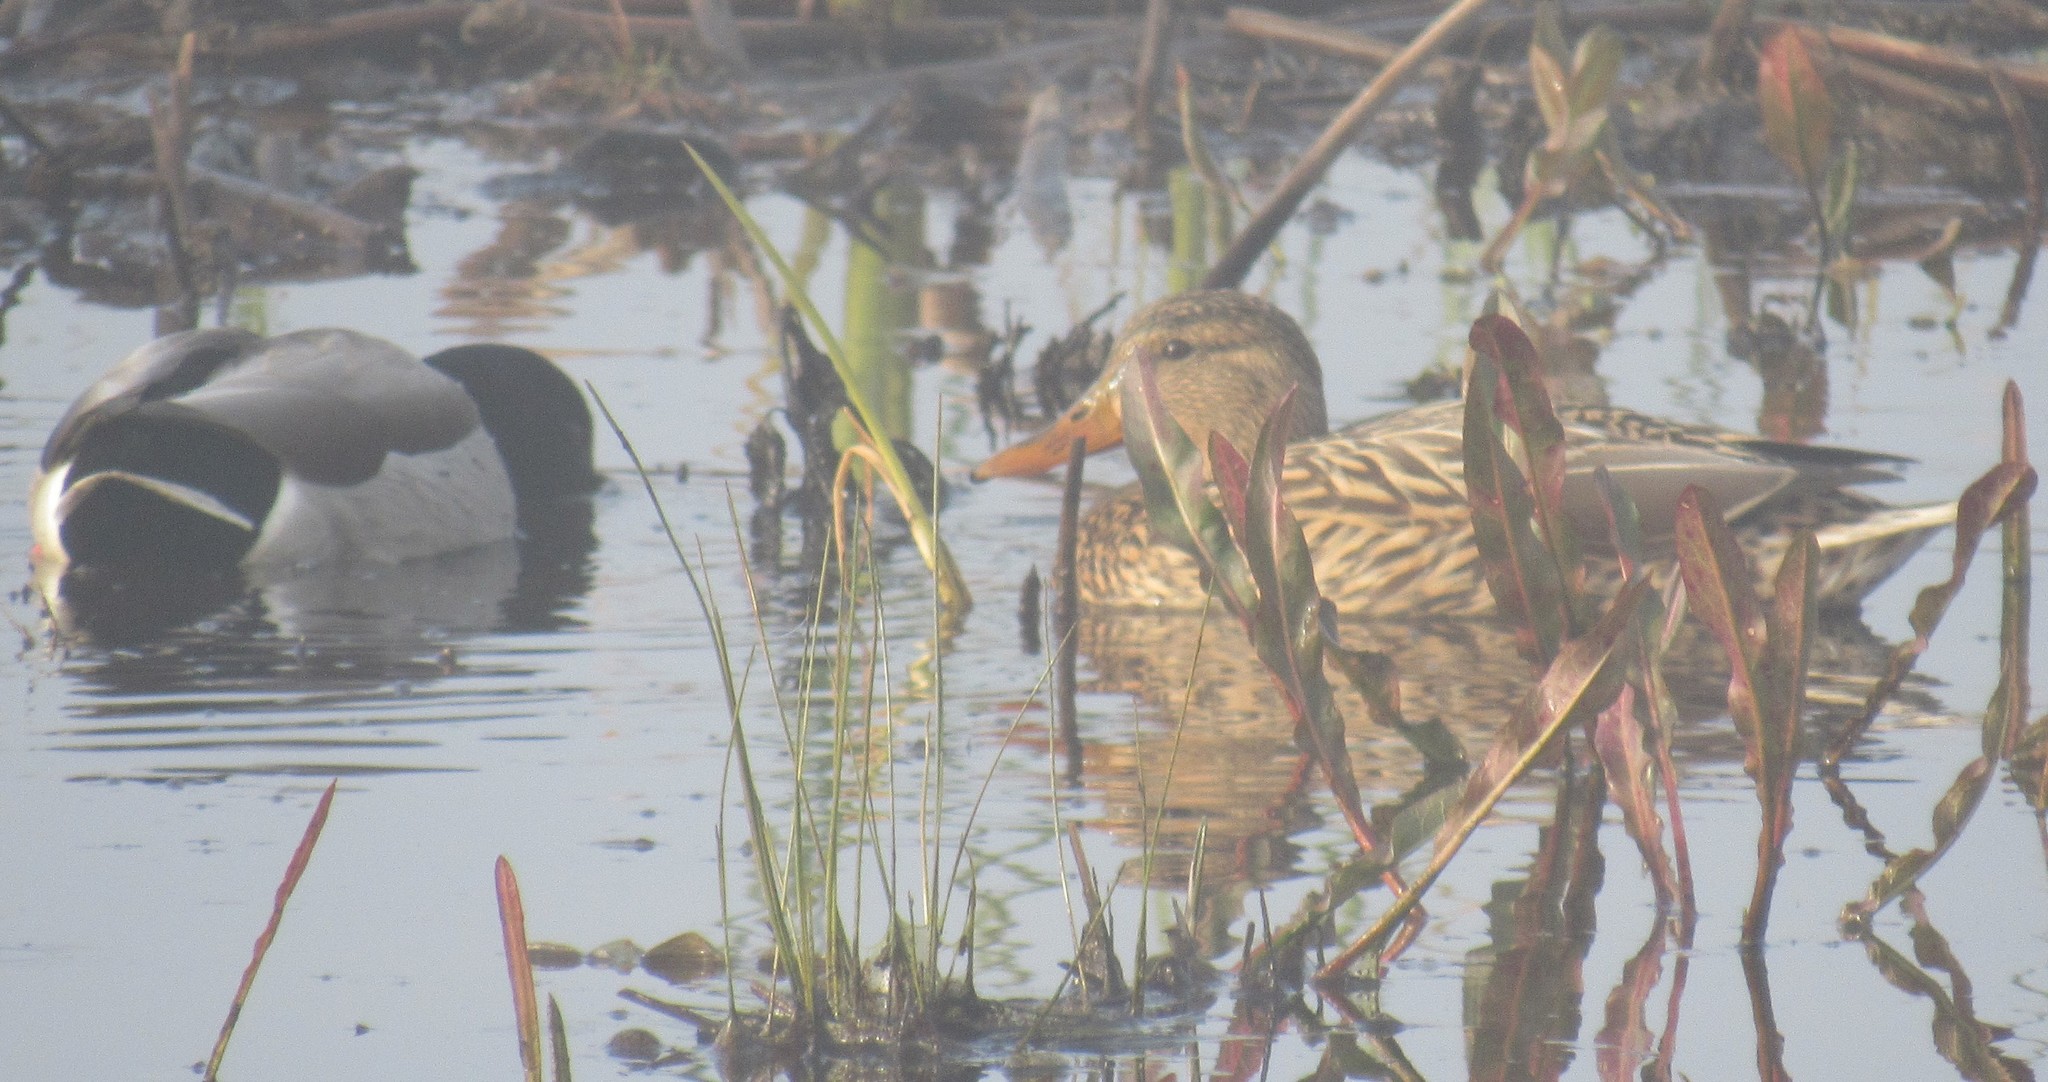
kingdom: Animalia
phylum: Chordata
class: Aves
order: Anseriformes
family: Anatidae
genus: Anas
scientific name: Anas platyrhynchos
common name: Mallard
